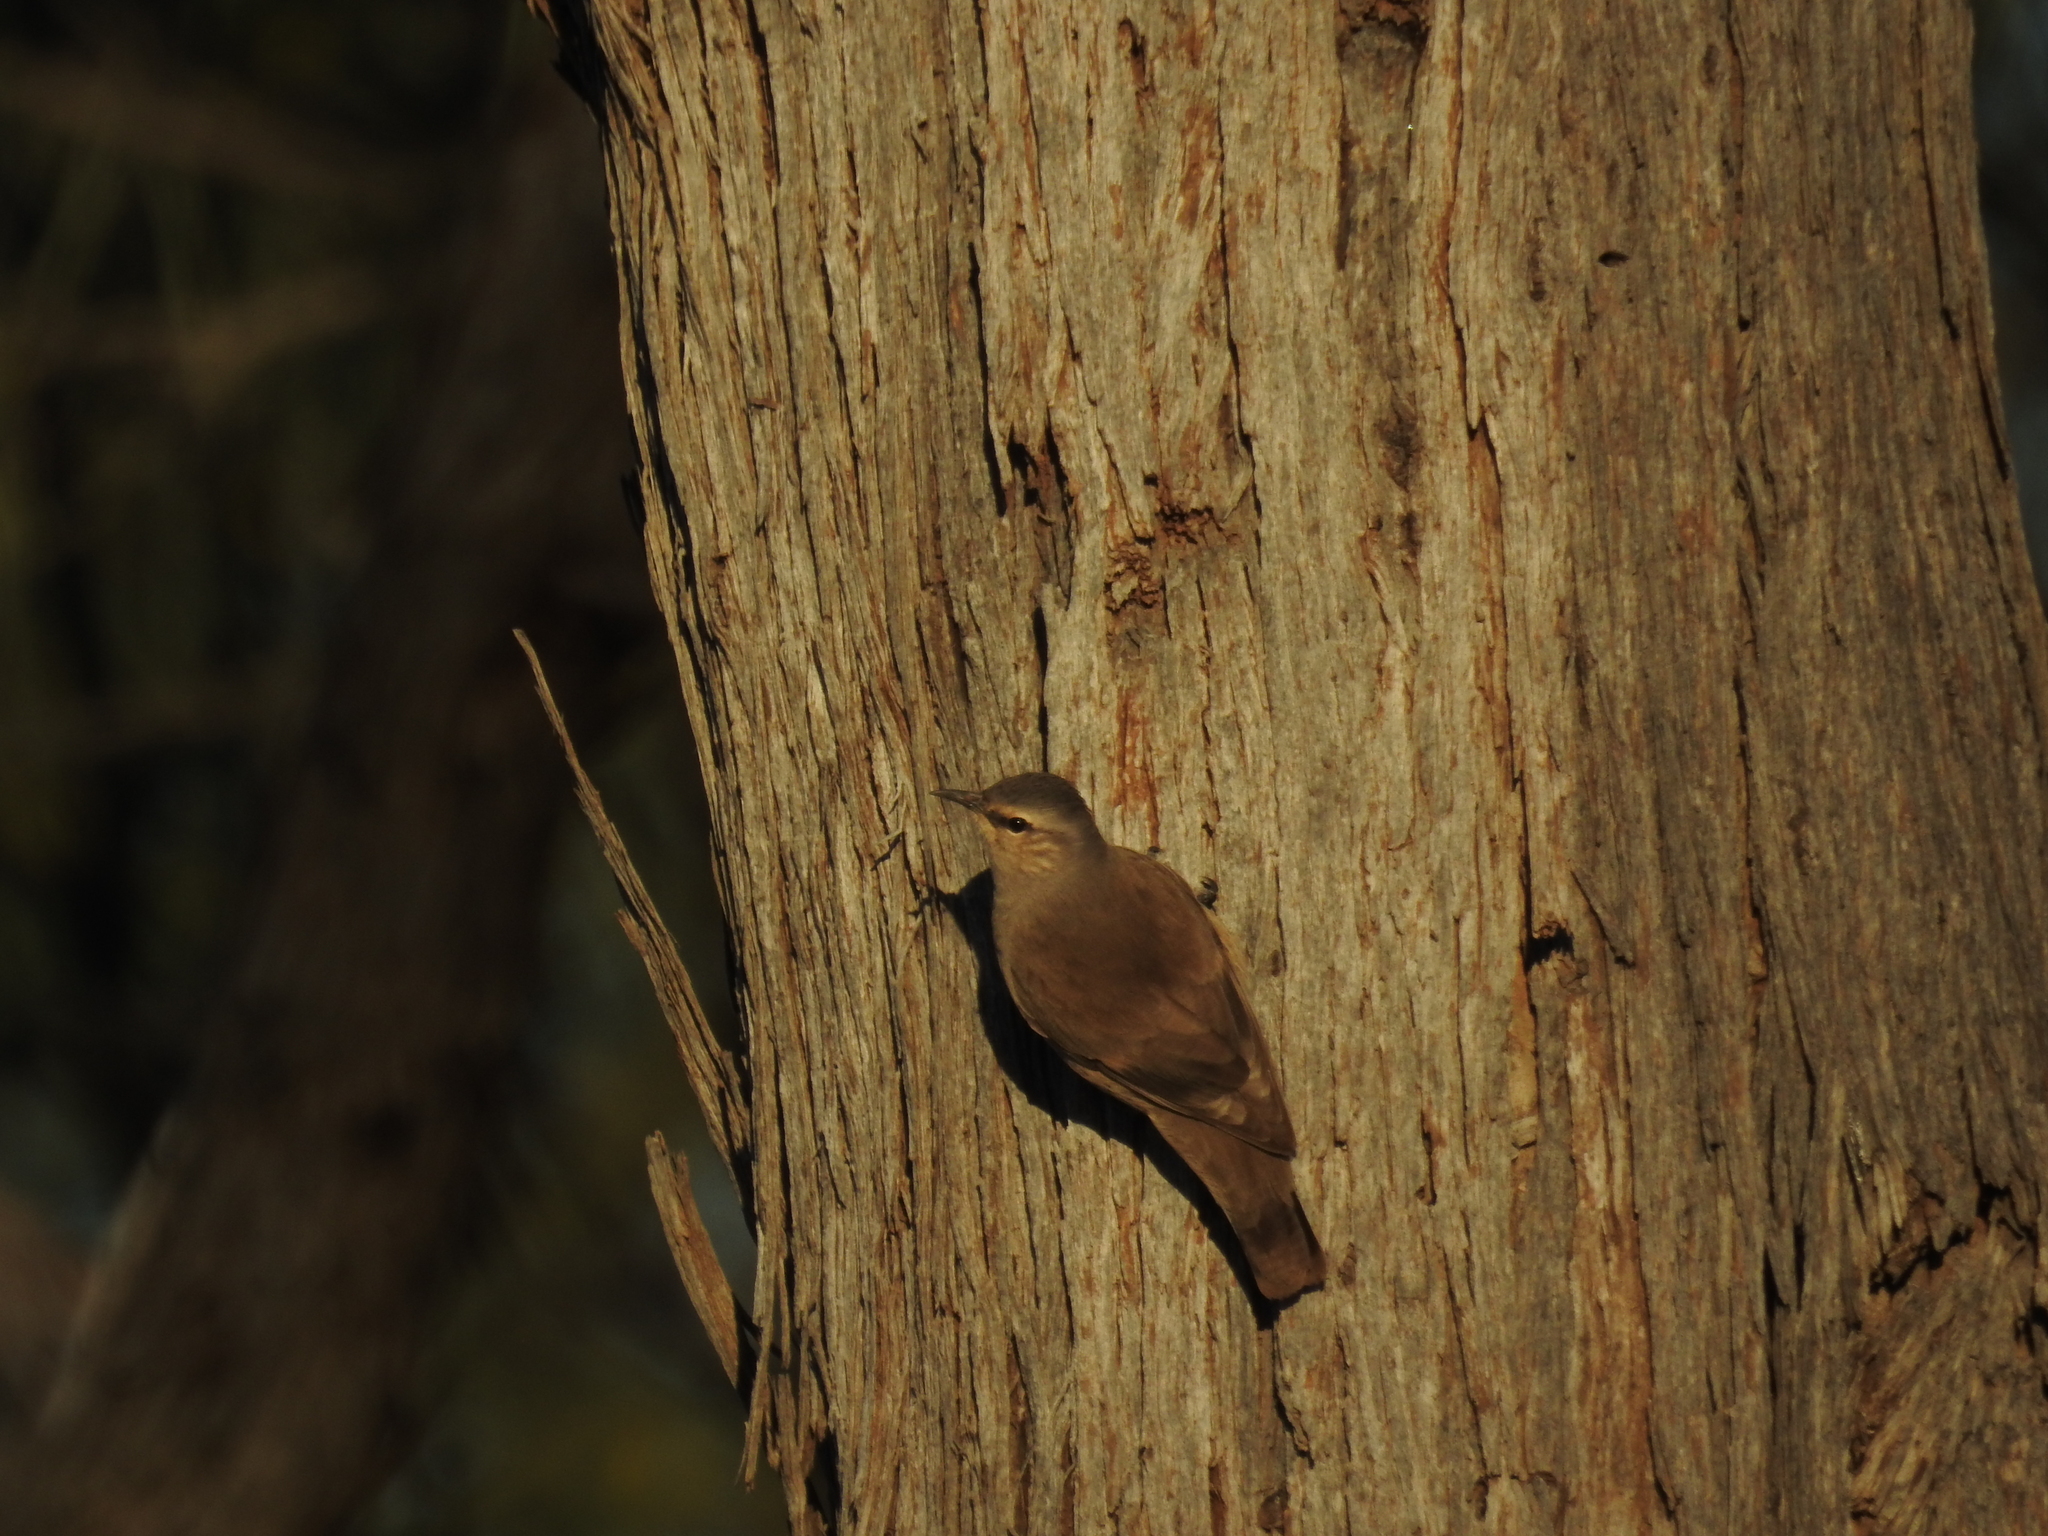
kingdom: Animalia
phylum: Chordata
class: Aves
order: Passeriformes
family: Climacteridae
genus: Climacteris
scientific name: Climacteris picumnus
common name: Brown treecreeper
